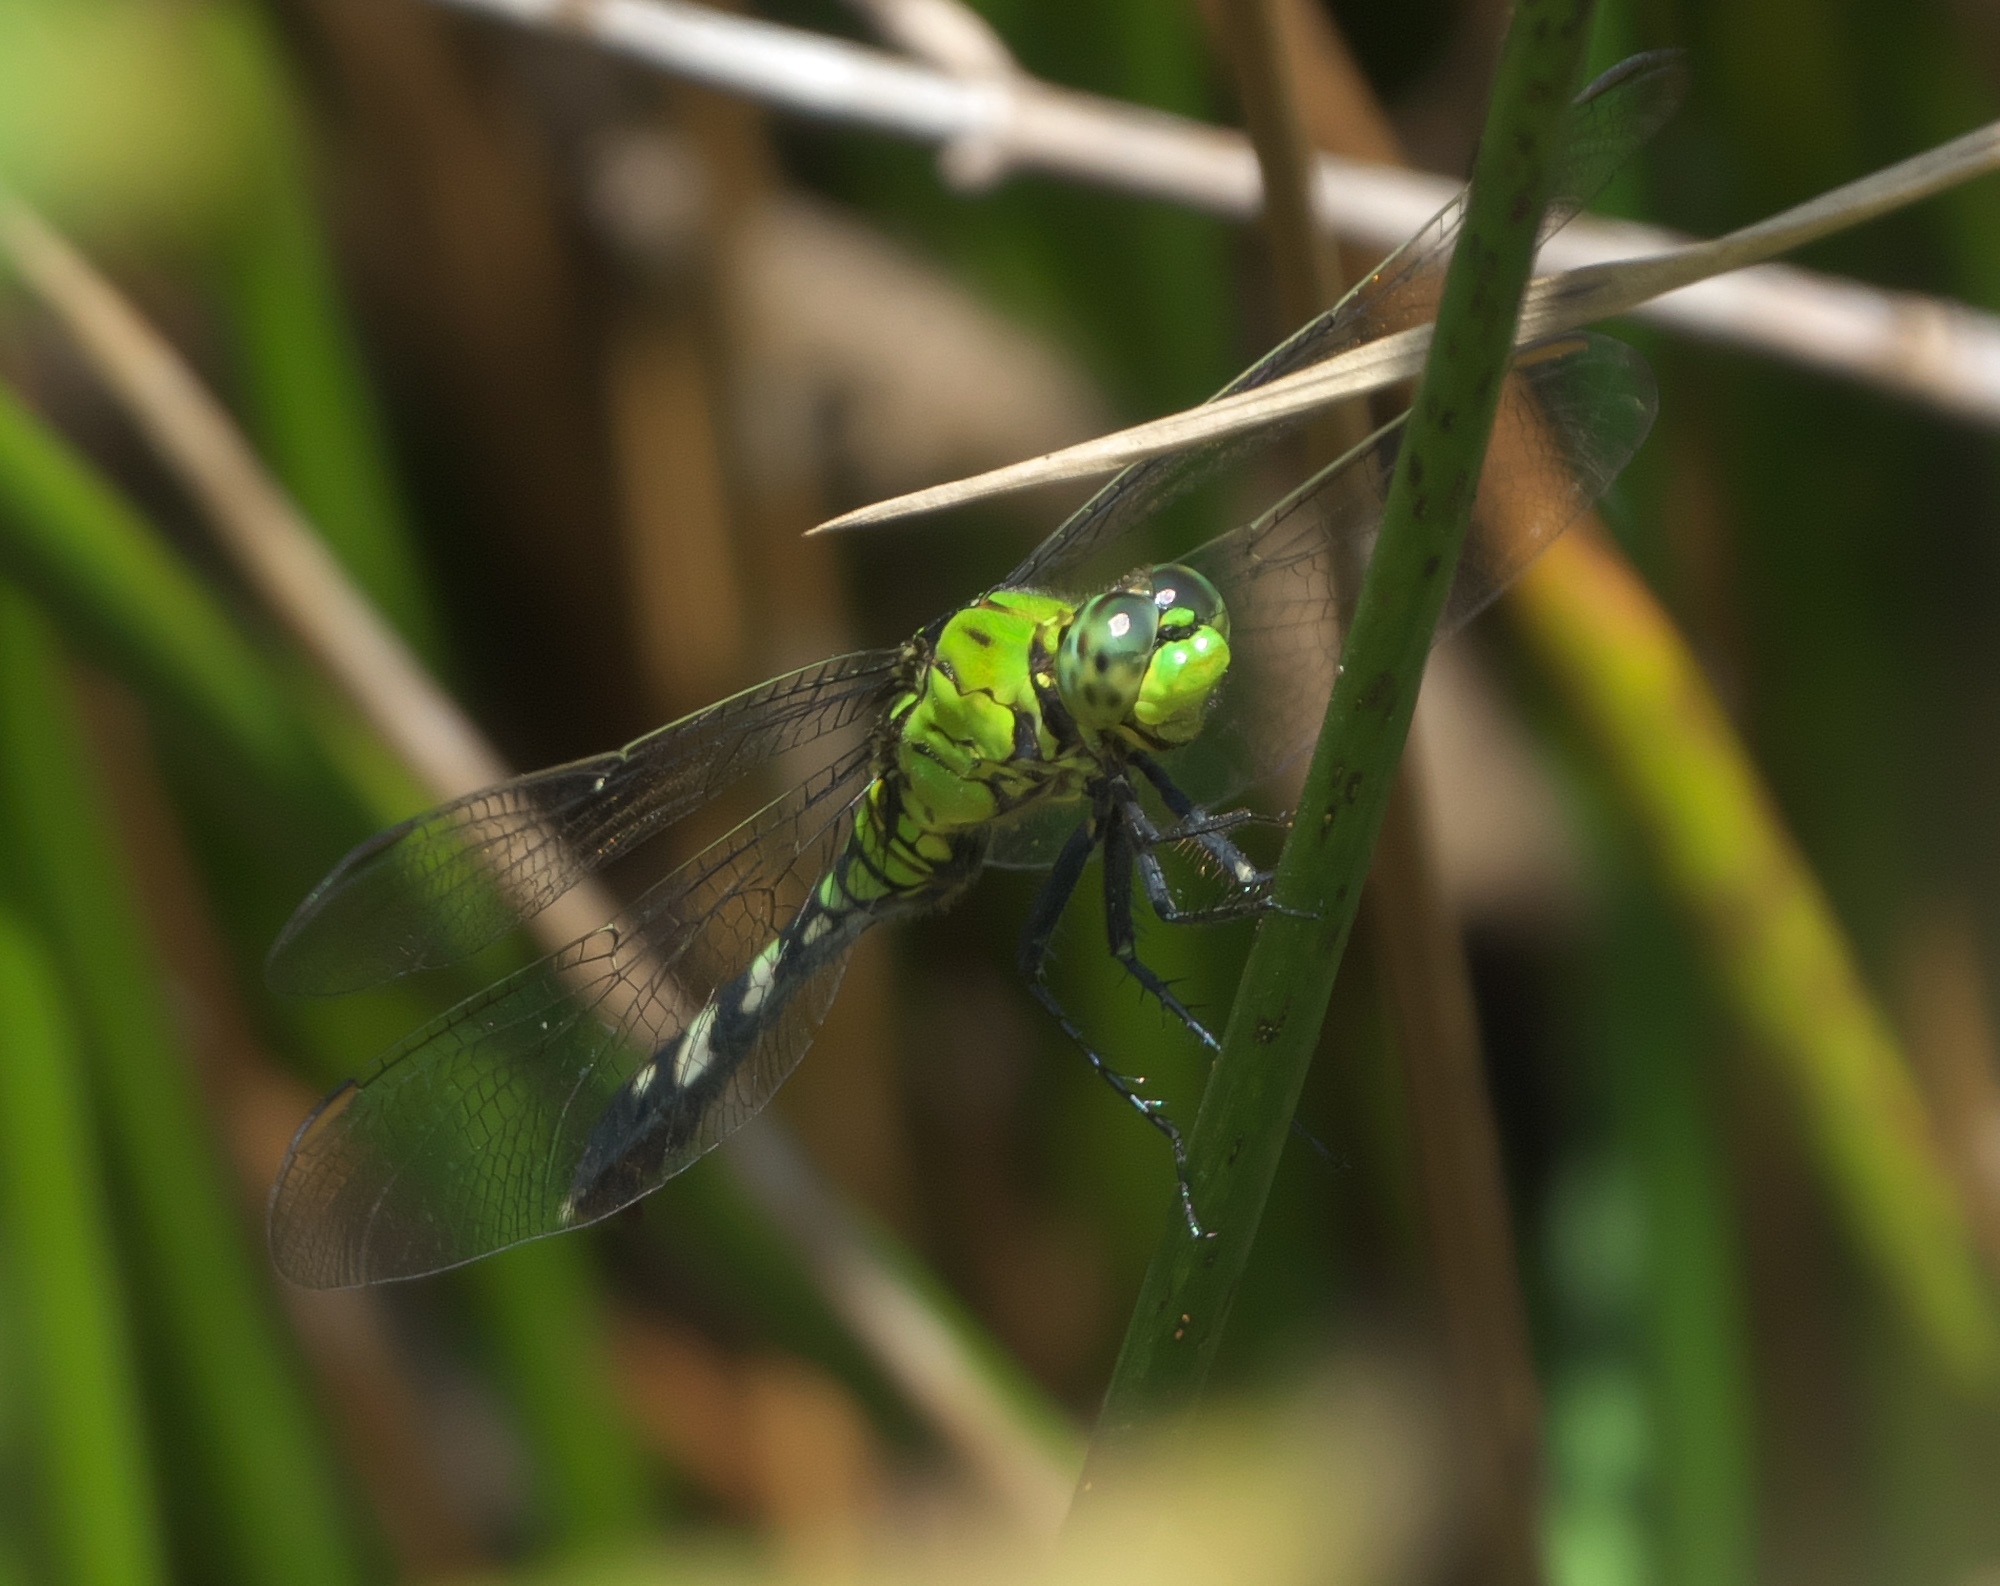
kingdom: Animalia
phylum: Arthropoda
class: Insecta
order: Odonata
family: Libellulidae
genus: Erythemis
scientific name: Erythemis simplicicollis
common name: Eastern pondhawk
